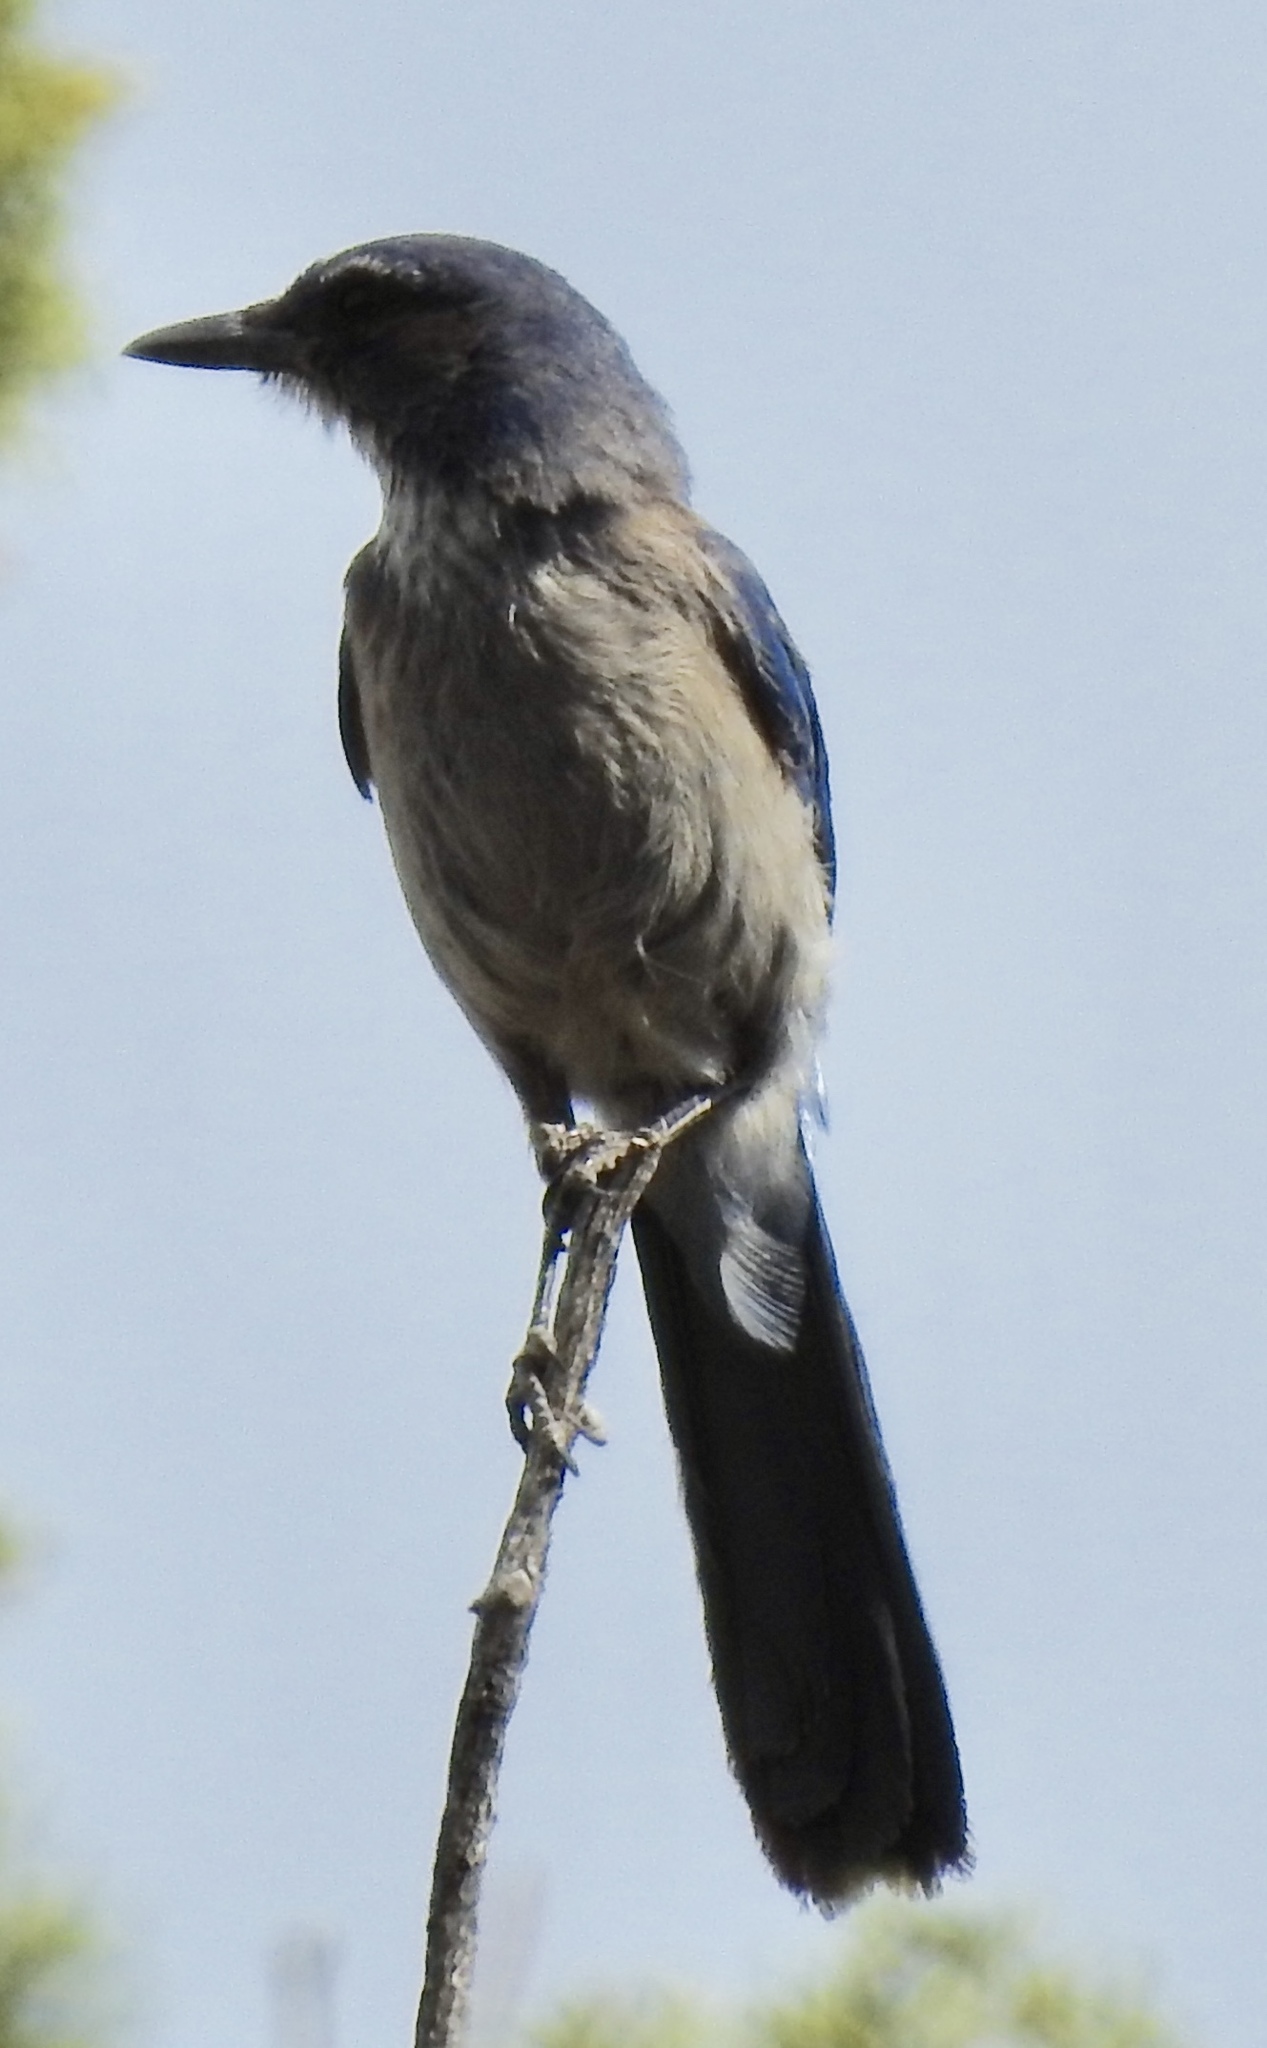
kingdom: Animalia
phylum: Chordata
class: Aves
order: Passeriformes
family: Corvidae
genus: Aphelocoma
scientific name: Aphelocoma woodhouseii
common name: Woodhouse's scrub-jay
